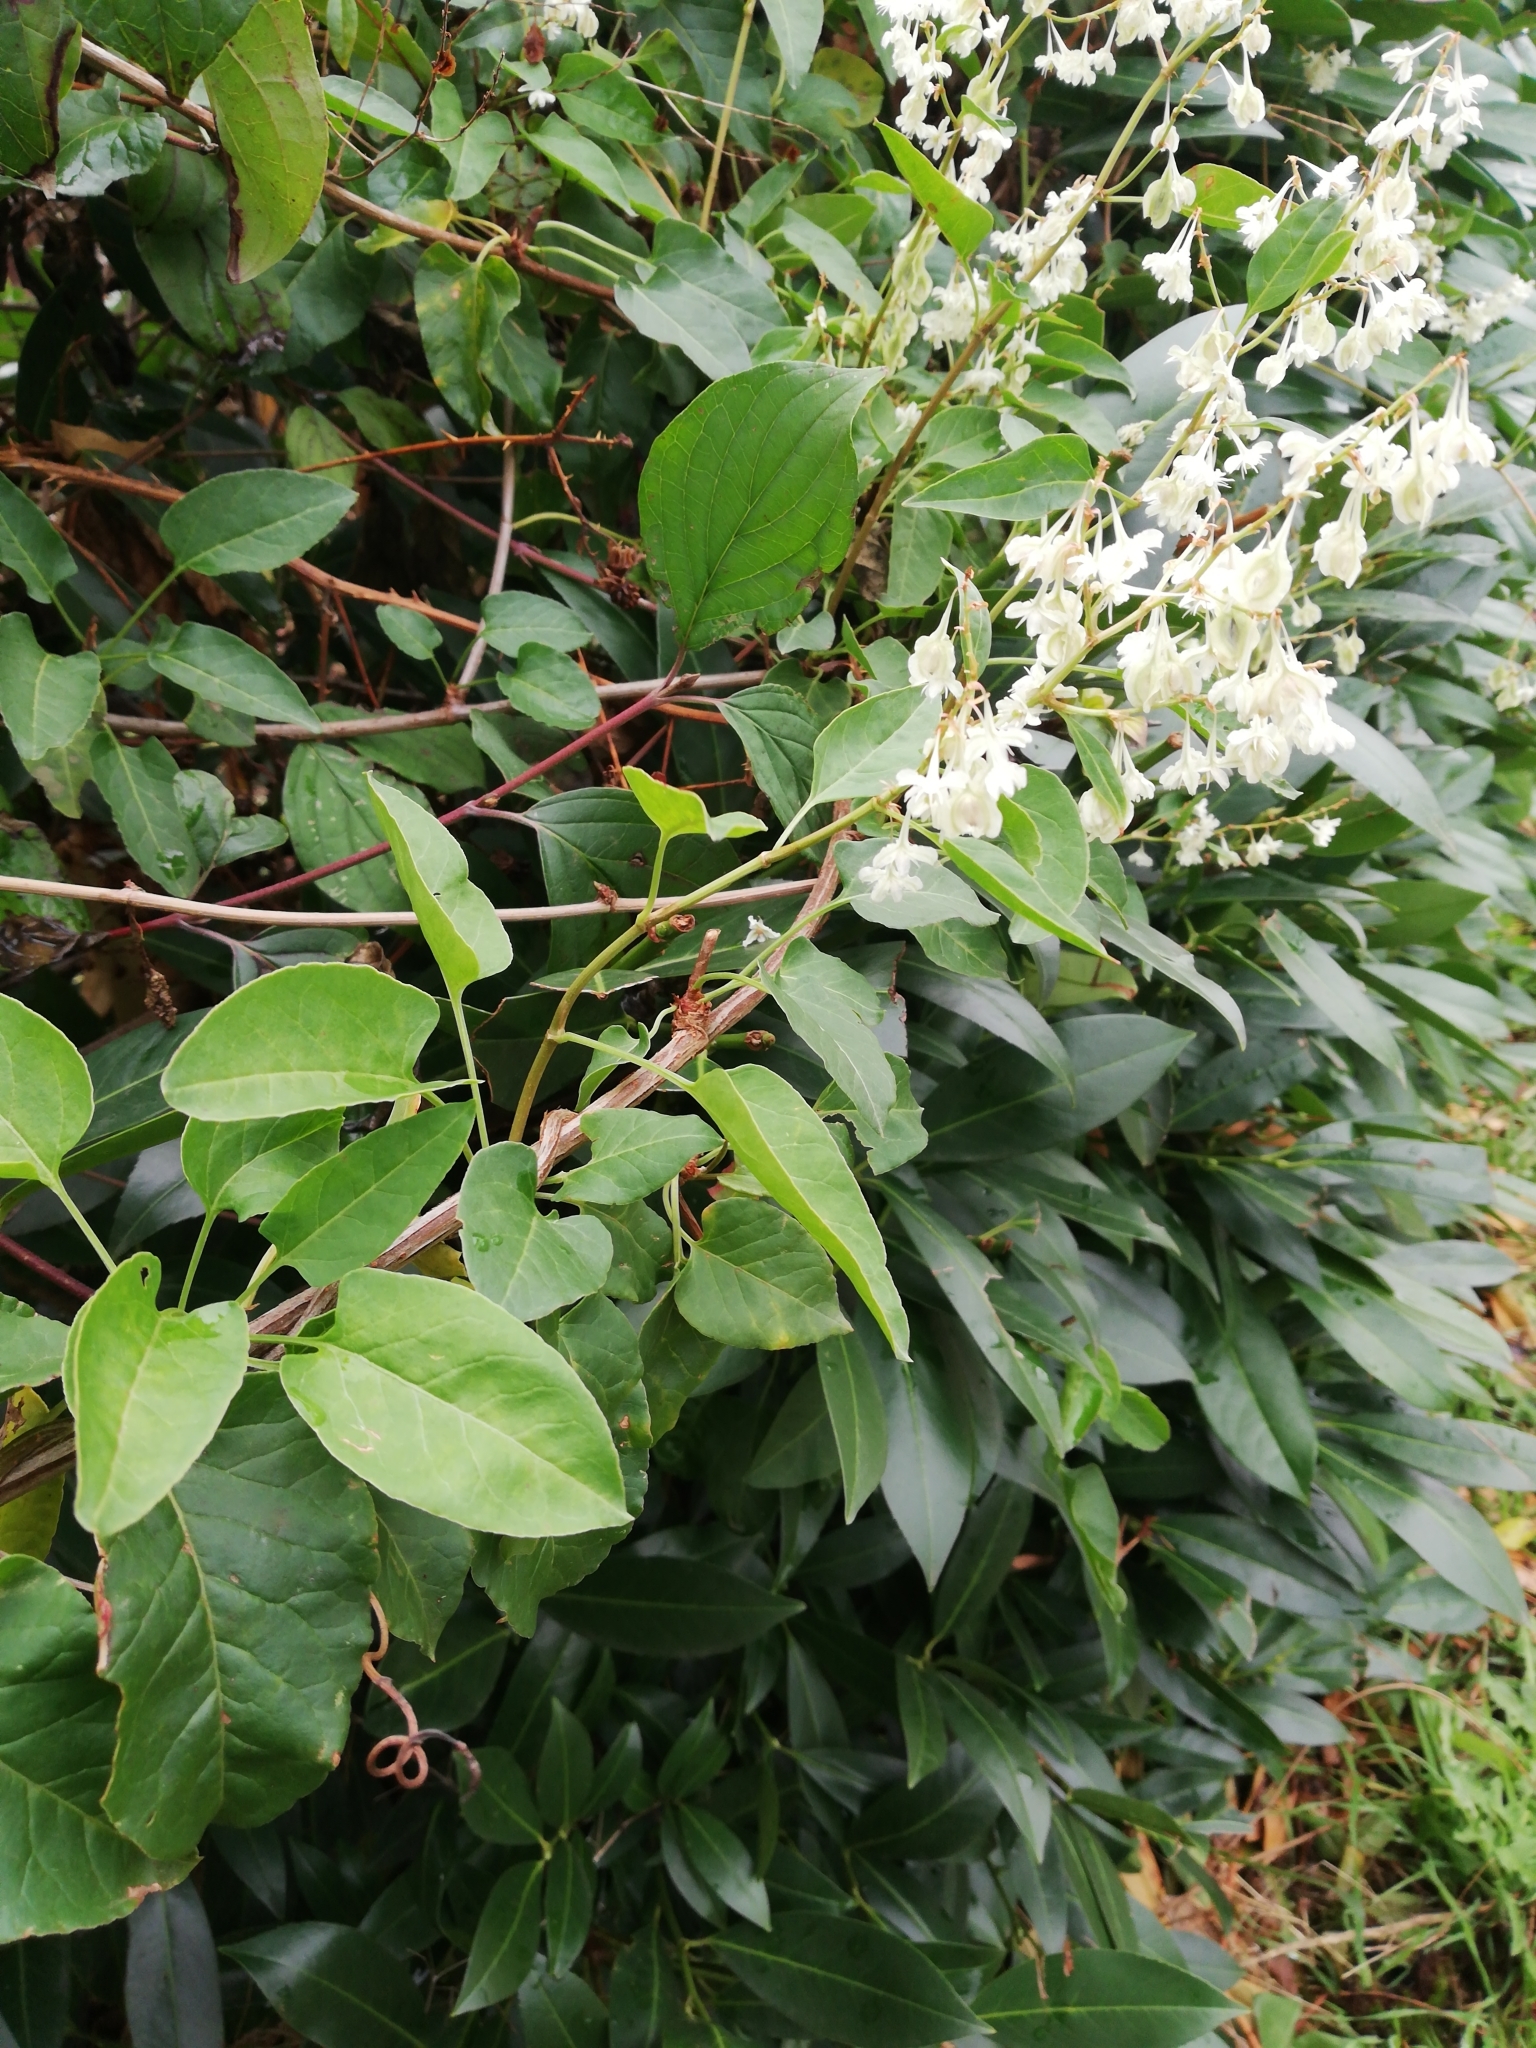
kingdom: Plantae
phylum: Tracheophyta
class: Magnoliopsida
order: Caryophyllales
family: Polygonaceae
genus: Fallopia
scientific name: Fallopia baldschuanica
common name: Russian-vine
